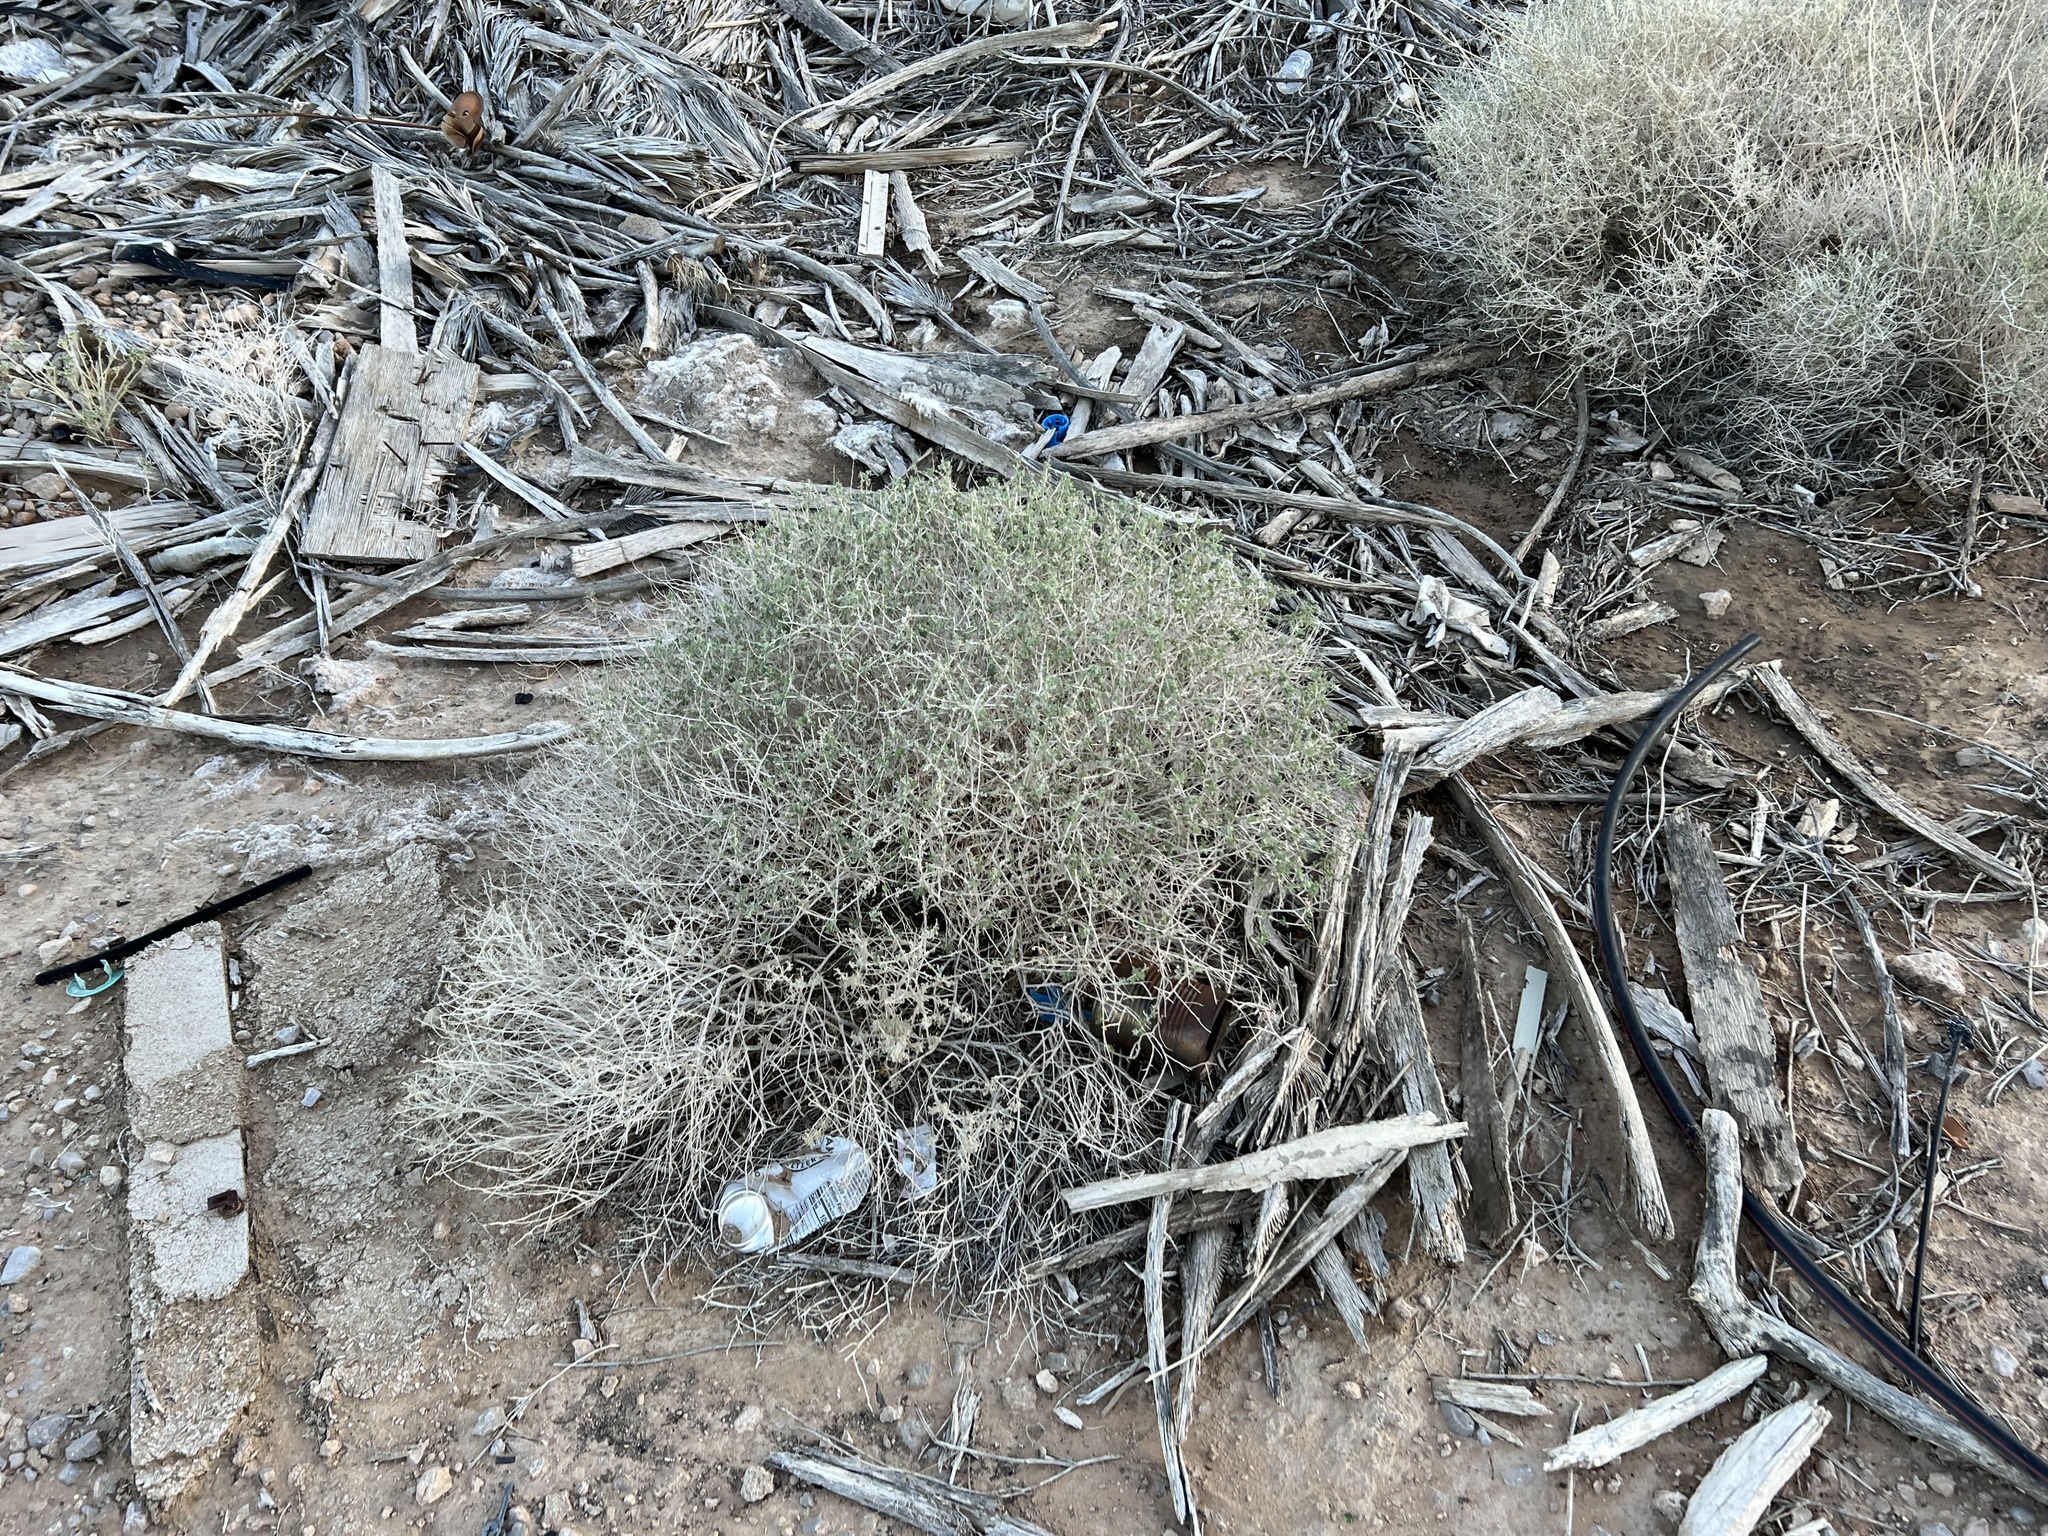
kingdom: Plantae
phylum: Tracheophyta
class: Magnoliopsida
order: Asterales
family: Asteraceae
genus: Ambrosia
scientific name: Ambrosia dumosa
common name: Bur-sage
